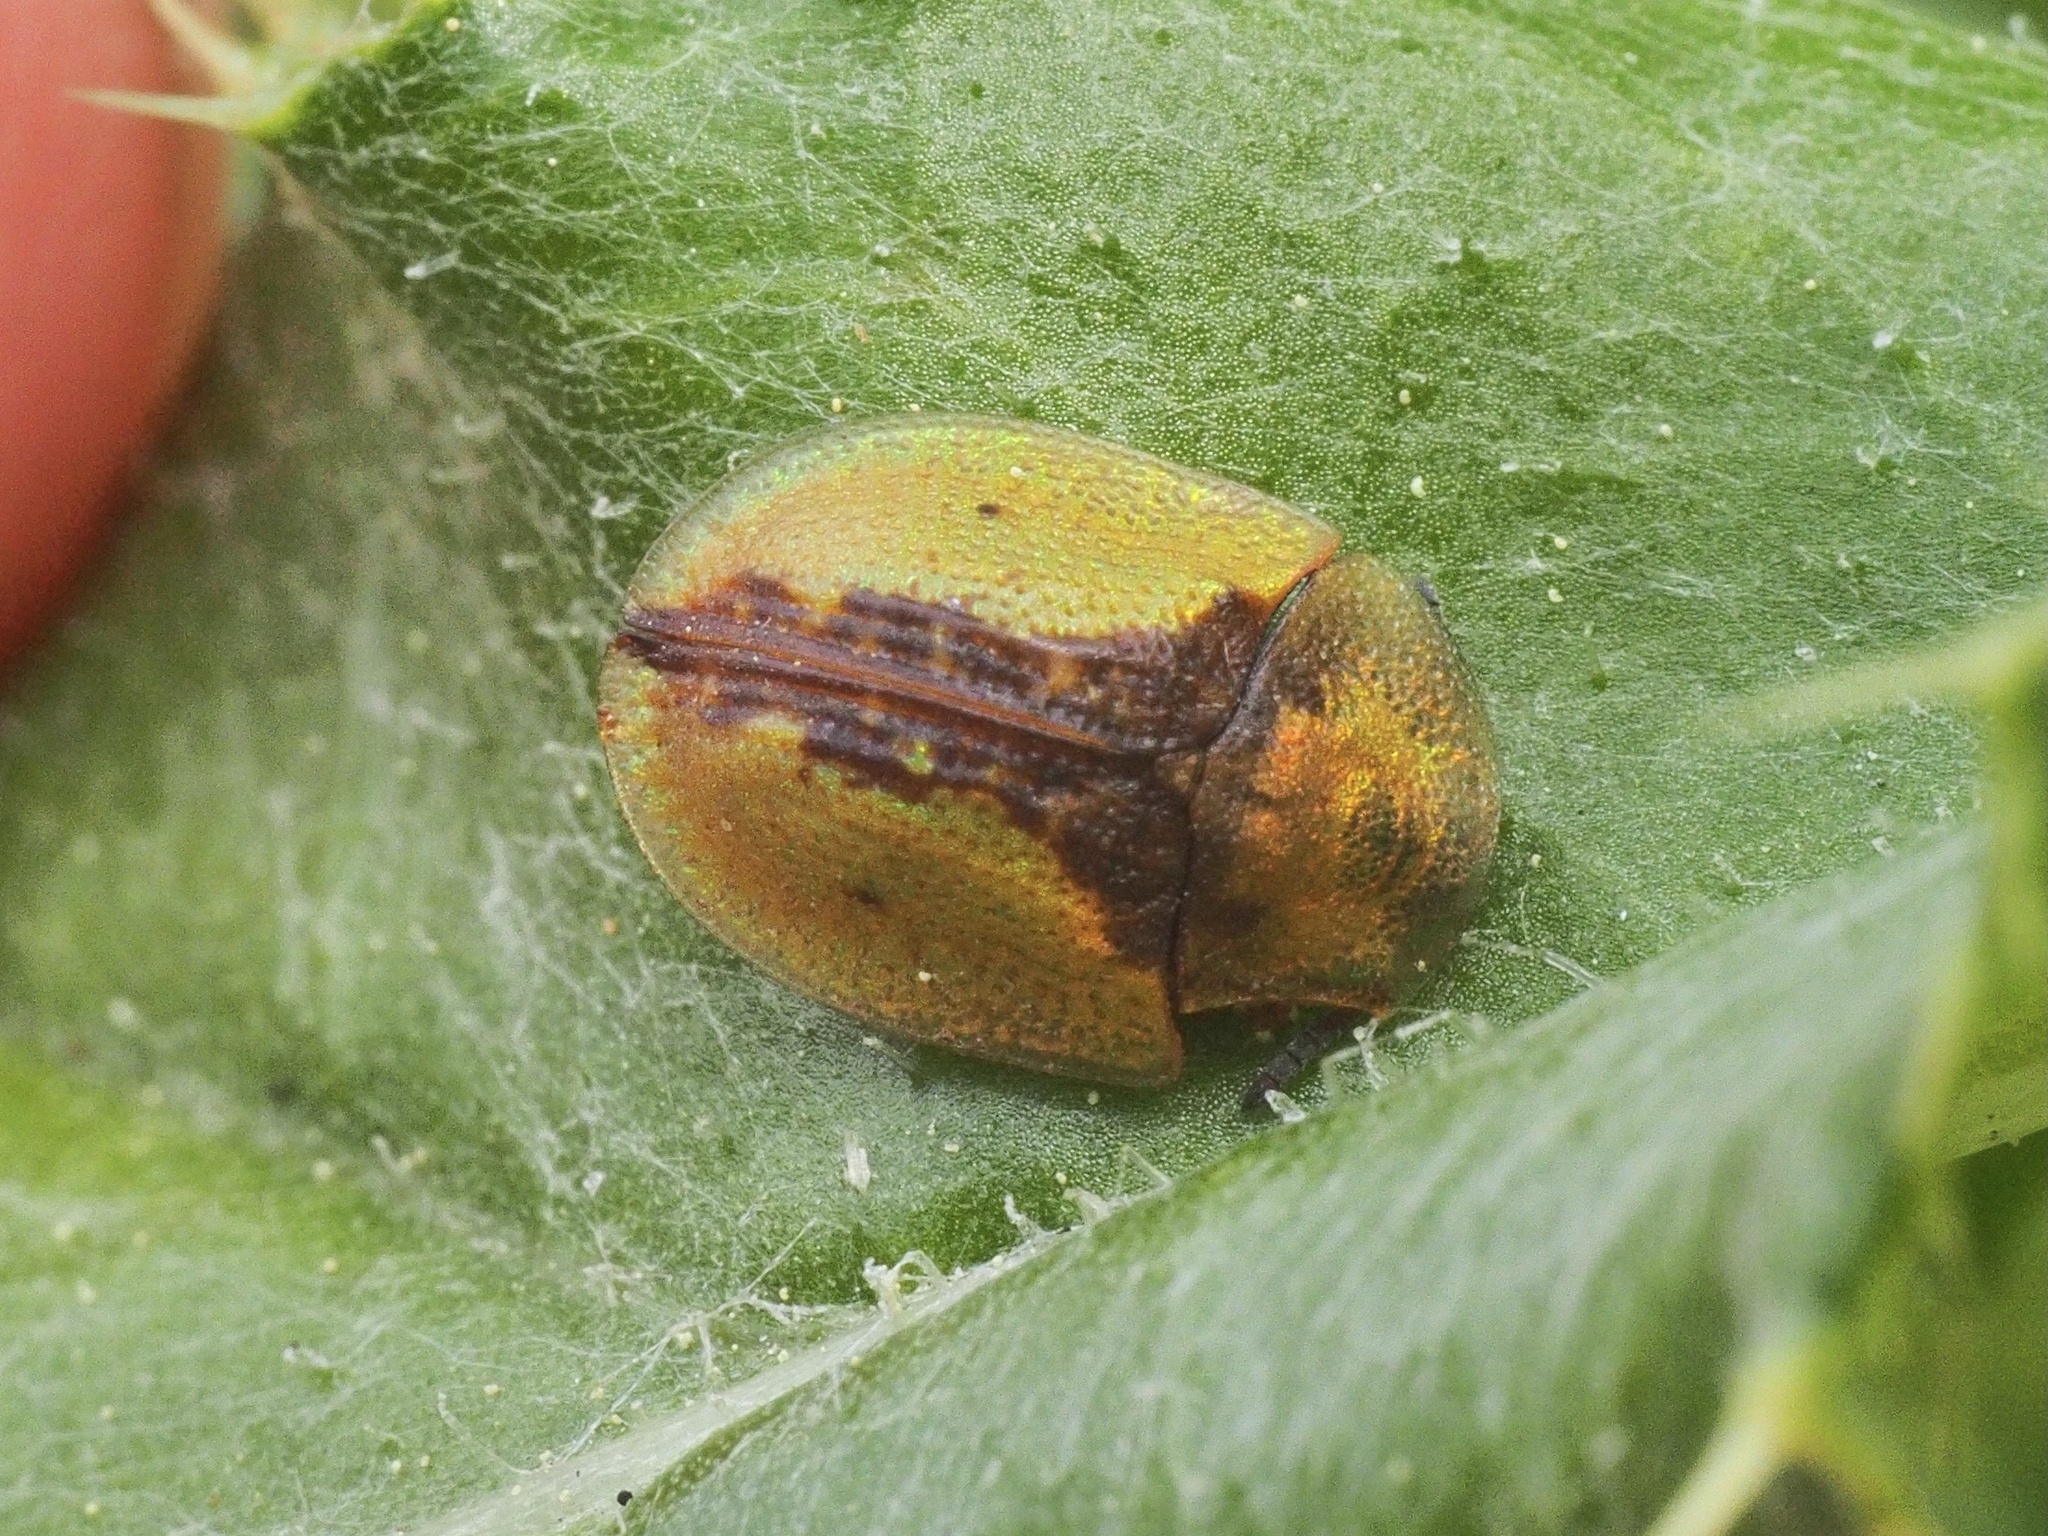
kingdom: Animalia
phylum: Arthropoda
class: Insecta
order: Coleoptera
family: Chrysomelidae
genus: Cassida
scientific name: Cassida vibex
